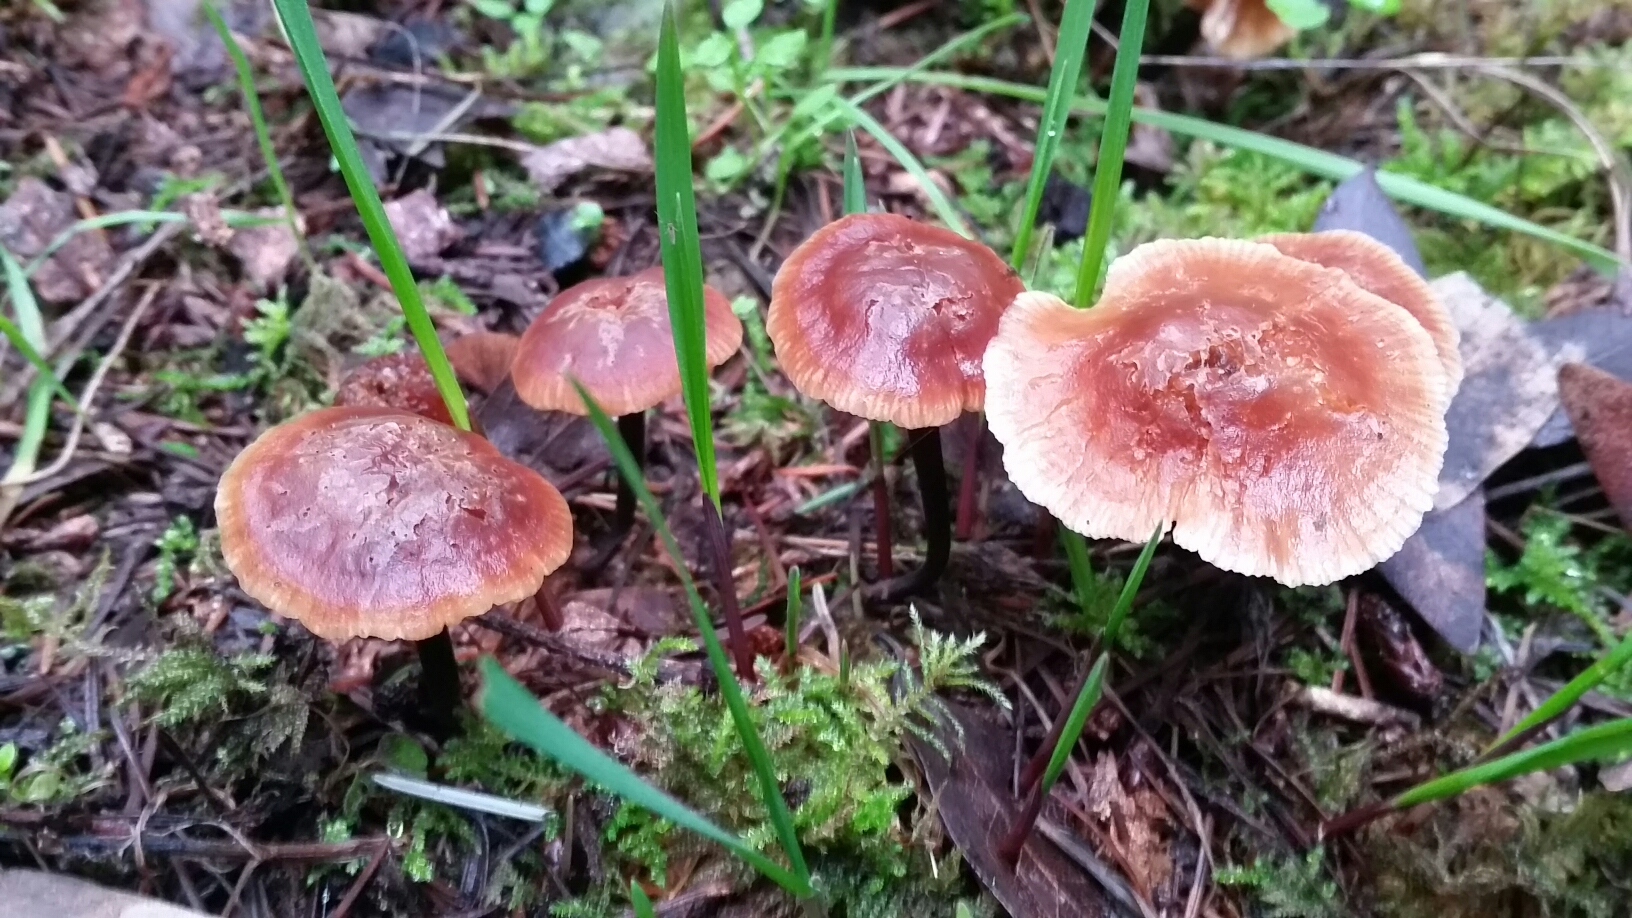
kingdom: Fungi
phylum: Basidiomycota
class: Agaricomycetes
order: Agaricales
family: Omphalotaceae
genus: Gymnopus
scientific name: Gymnopus brassicolens
